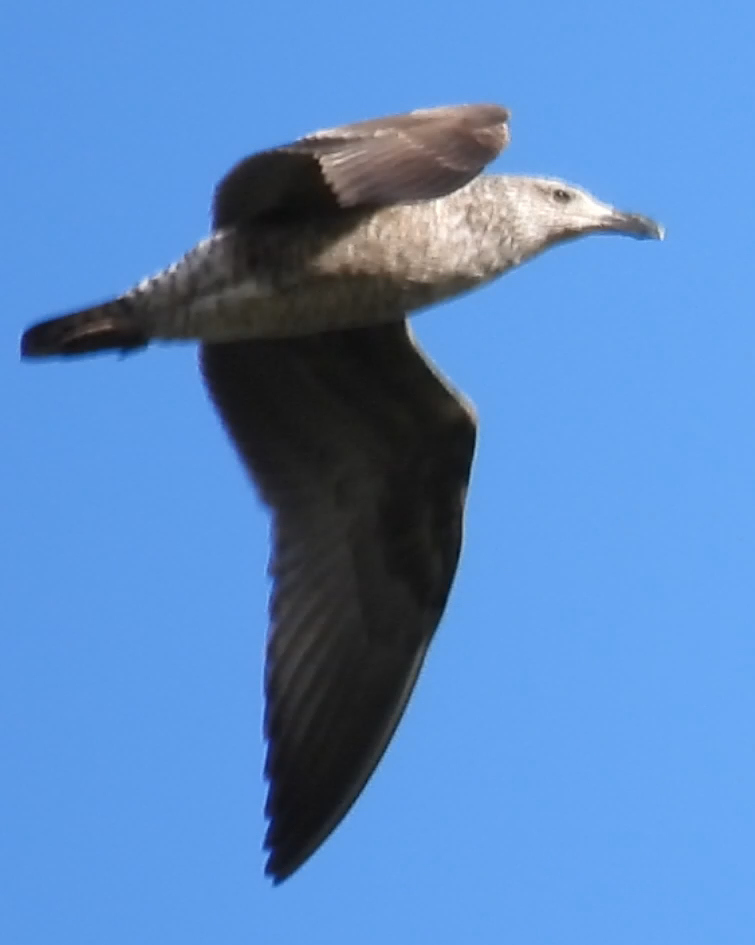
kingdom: Animalia
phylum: Chordata
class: Aves
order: Charadriiformes
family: Laridae
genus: Larus
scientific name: Larus dominicanus
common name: Kelp gull
